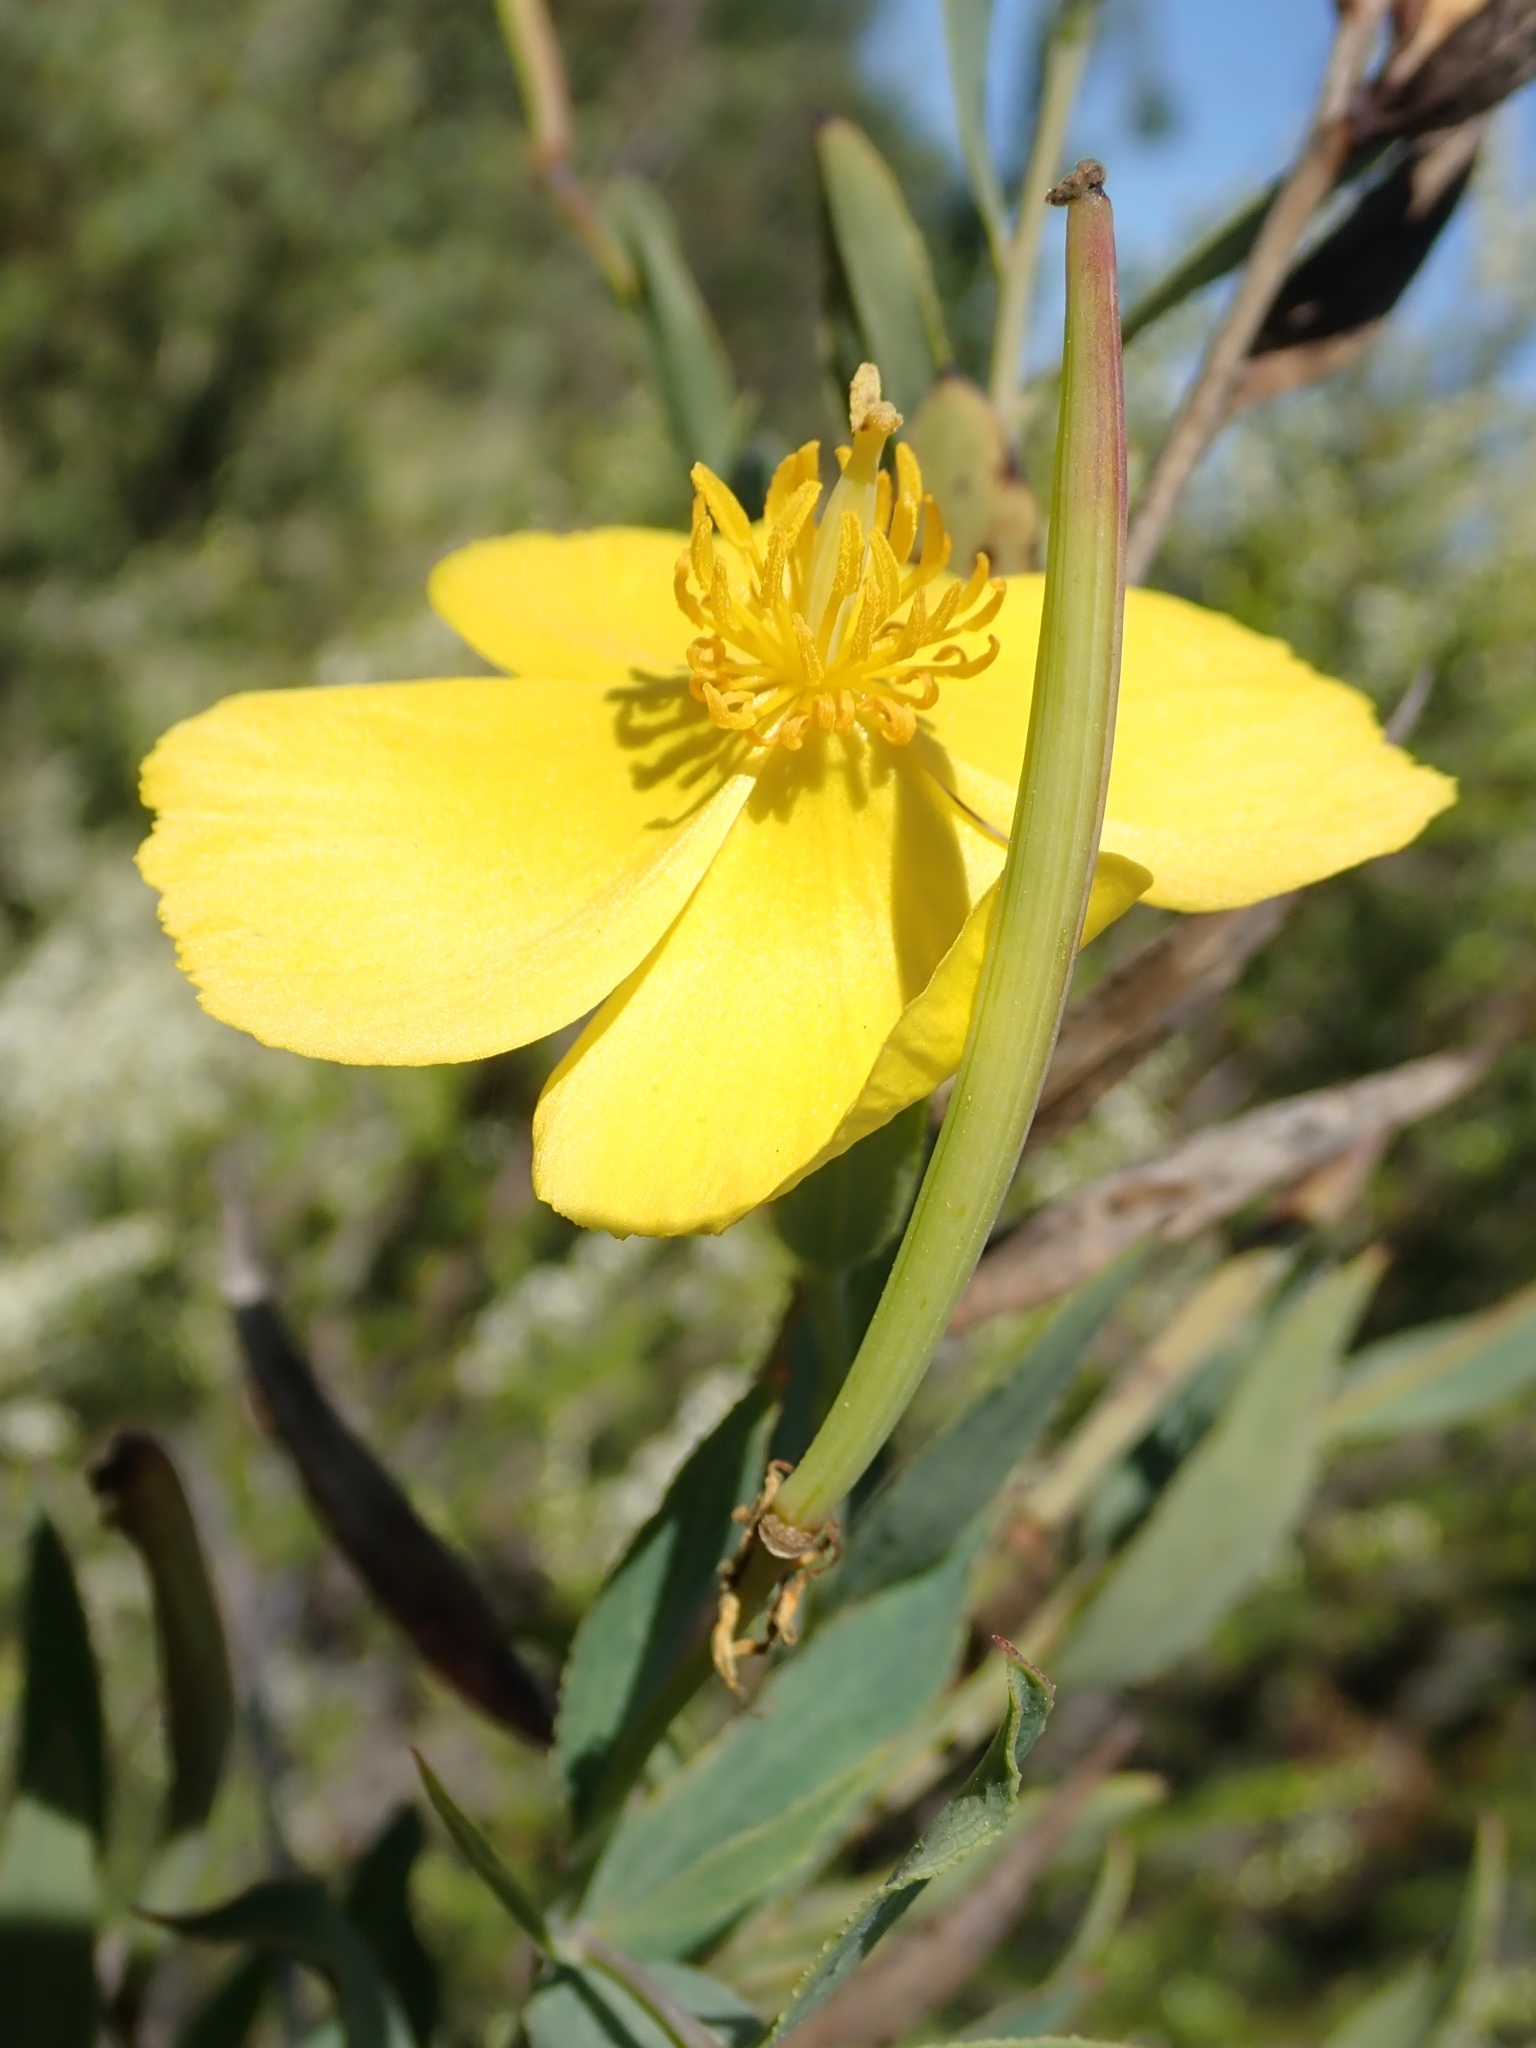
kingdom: Plantae
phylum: Tracheophyta
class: Magnoliopsida
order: Ranunculales
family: Papaveraceae
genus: Dendromecon
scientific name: Dendromecon rigida
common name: Tree poppy
